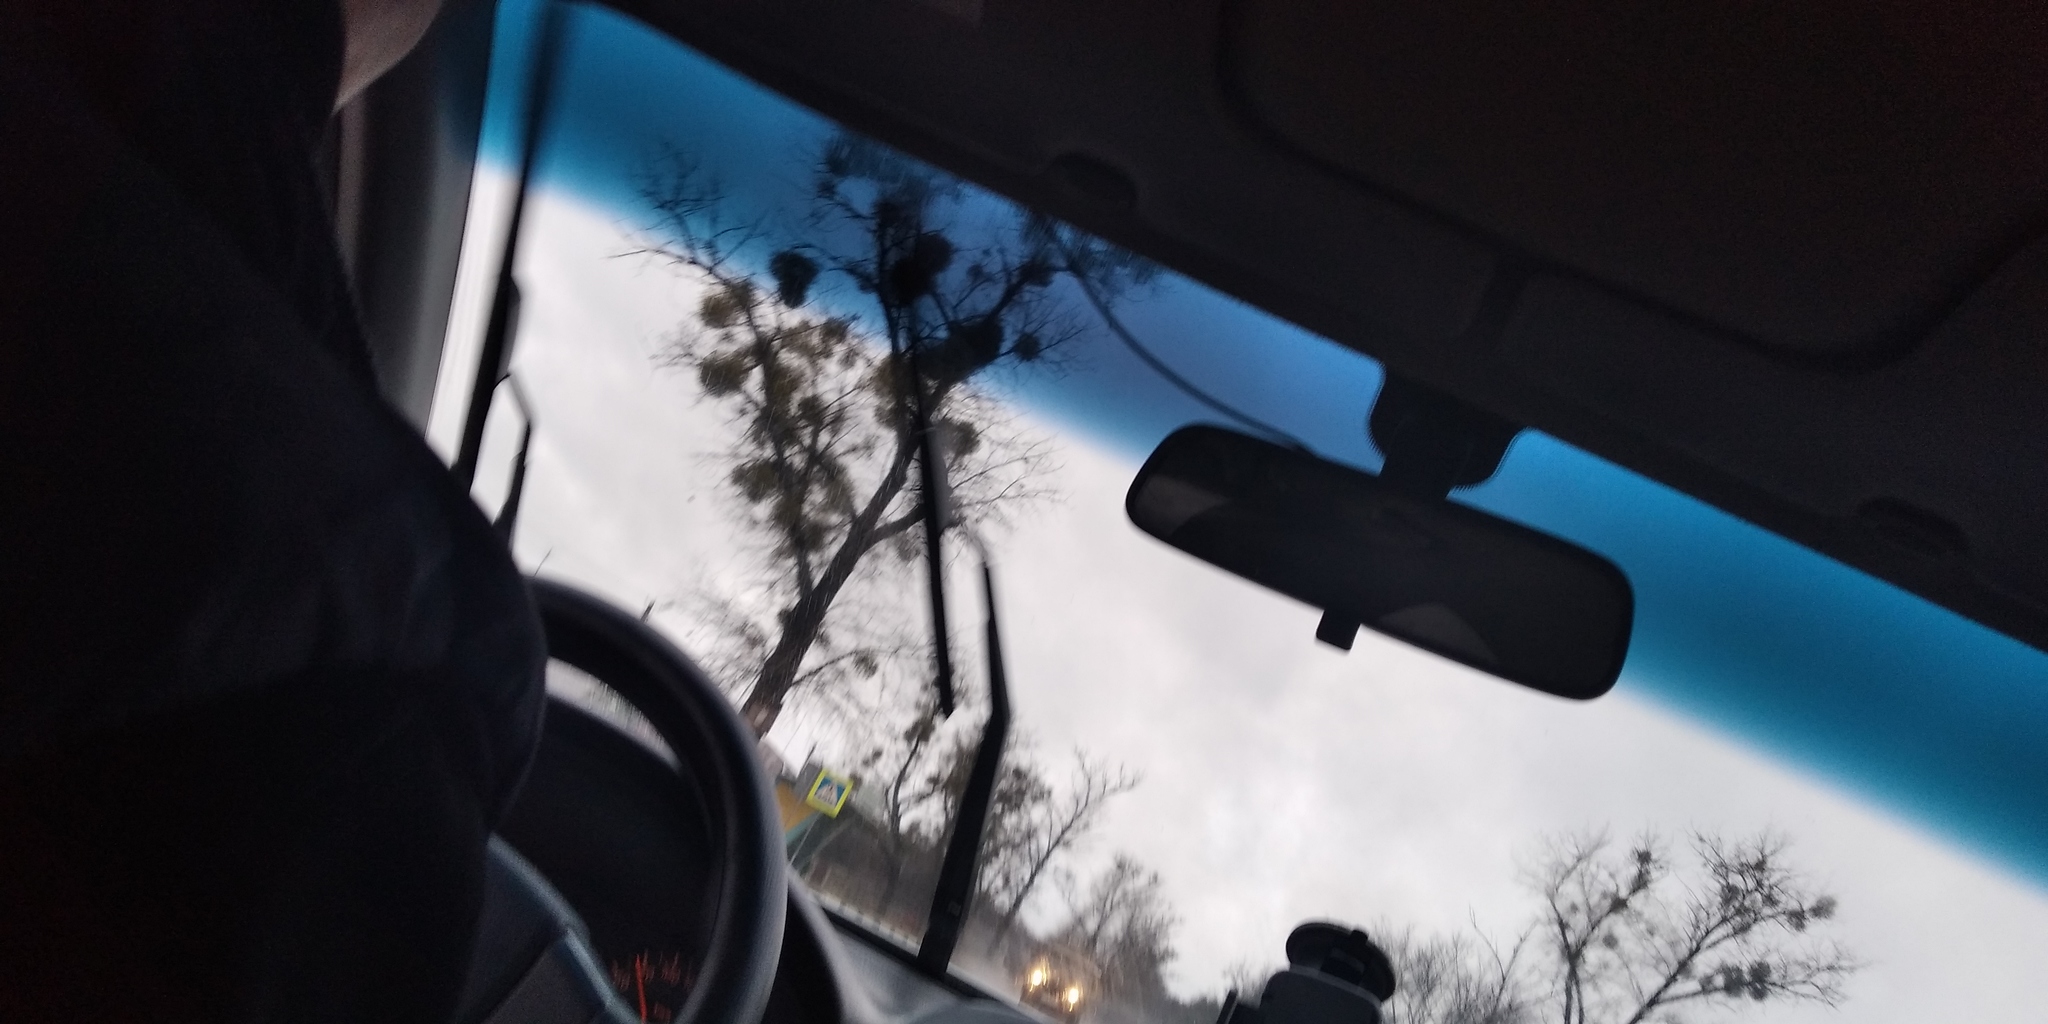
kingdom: Plantae
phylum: Tracheophyta
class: Magnoliopsida
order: Santalales
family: Viscaceae
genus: Viscum
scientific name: Viscum album
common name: Mistletoe
